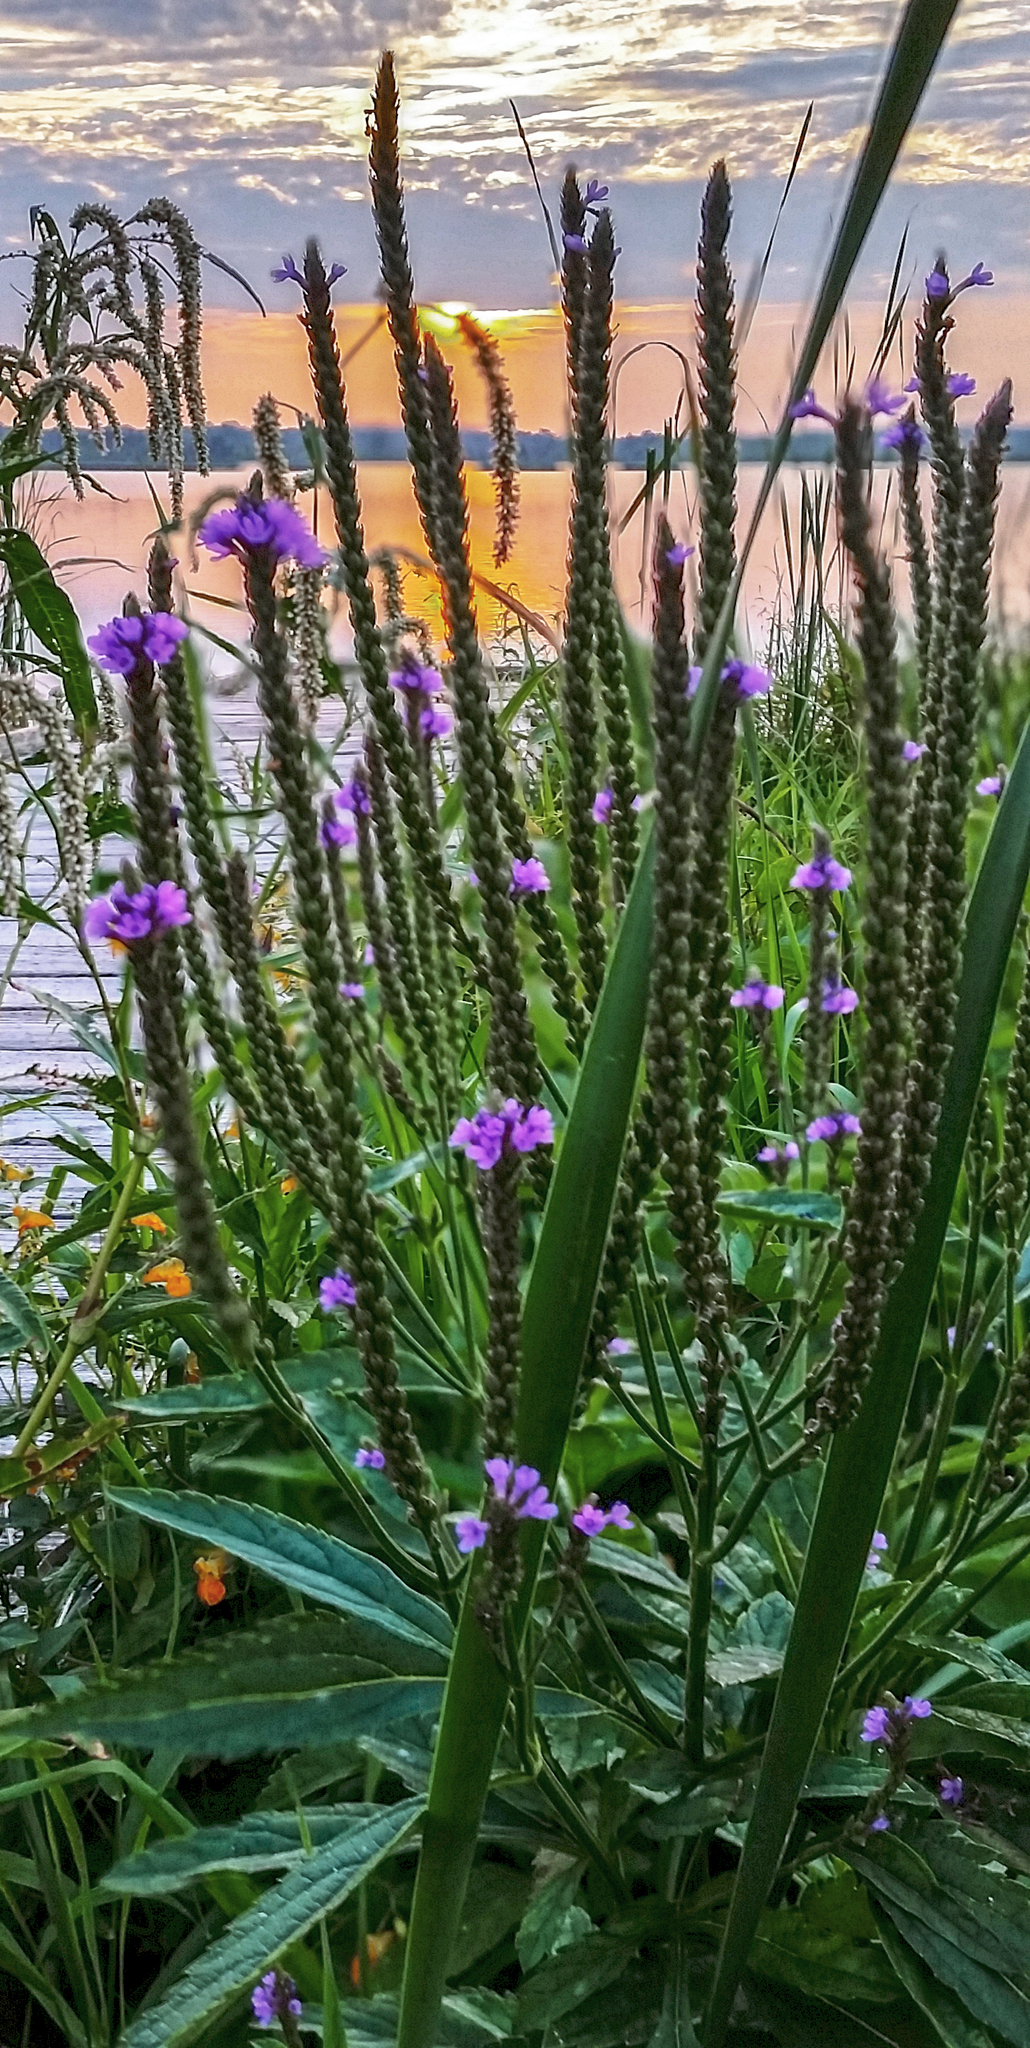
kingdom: Plantae
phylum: Tracheophyta
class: Magnoliopsida
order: Lamiales
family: Verbenaceae
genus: Verbena
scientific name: Verbena hastata
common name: American blue vervain
